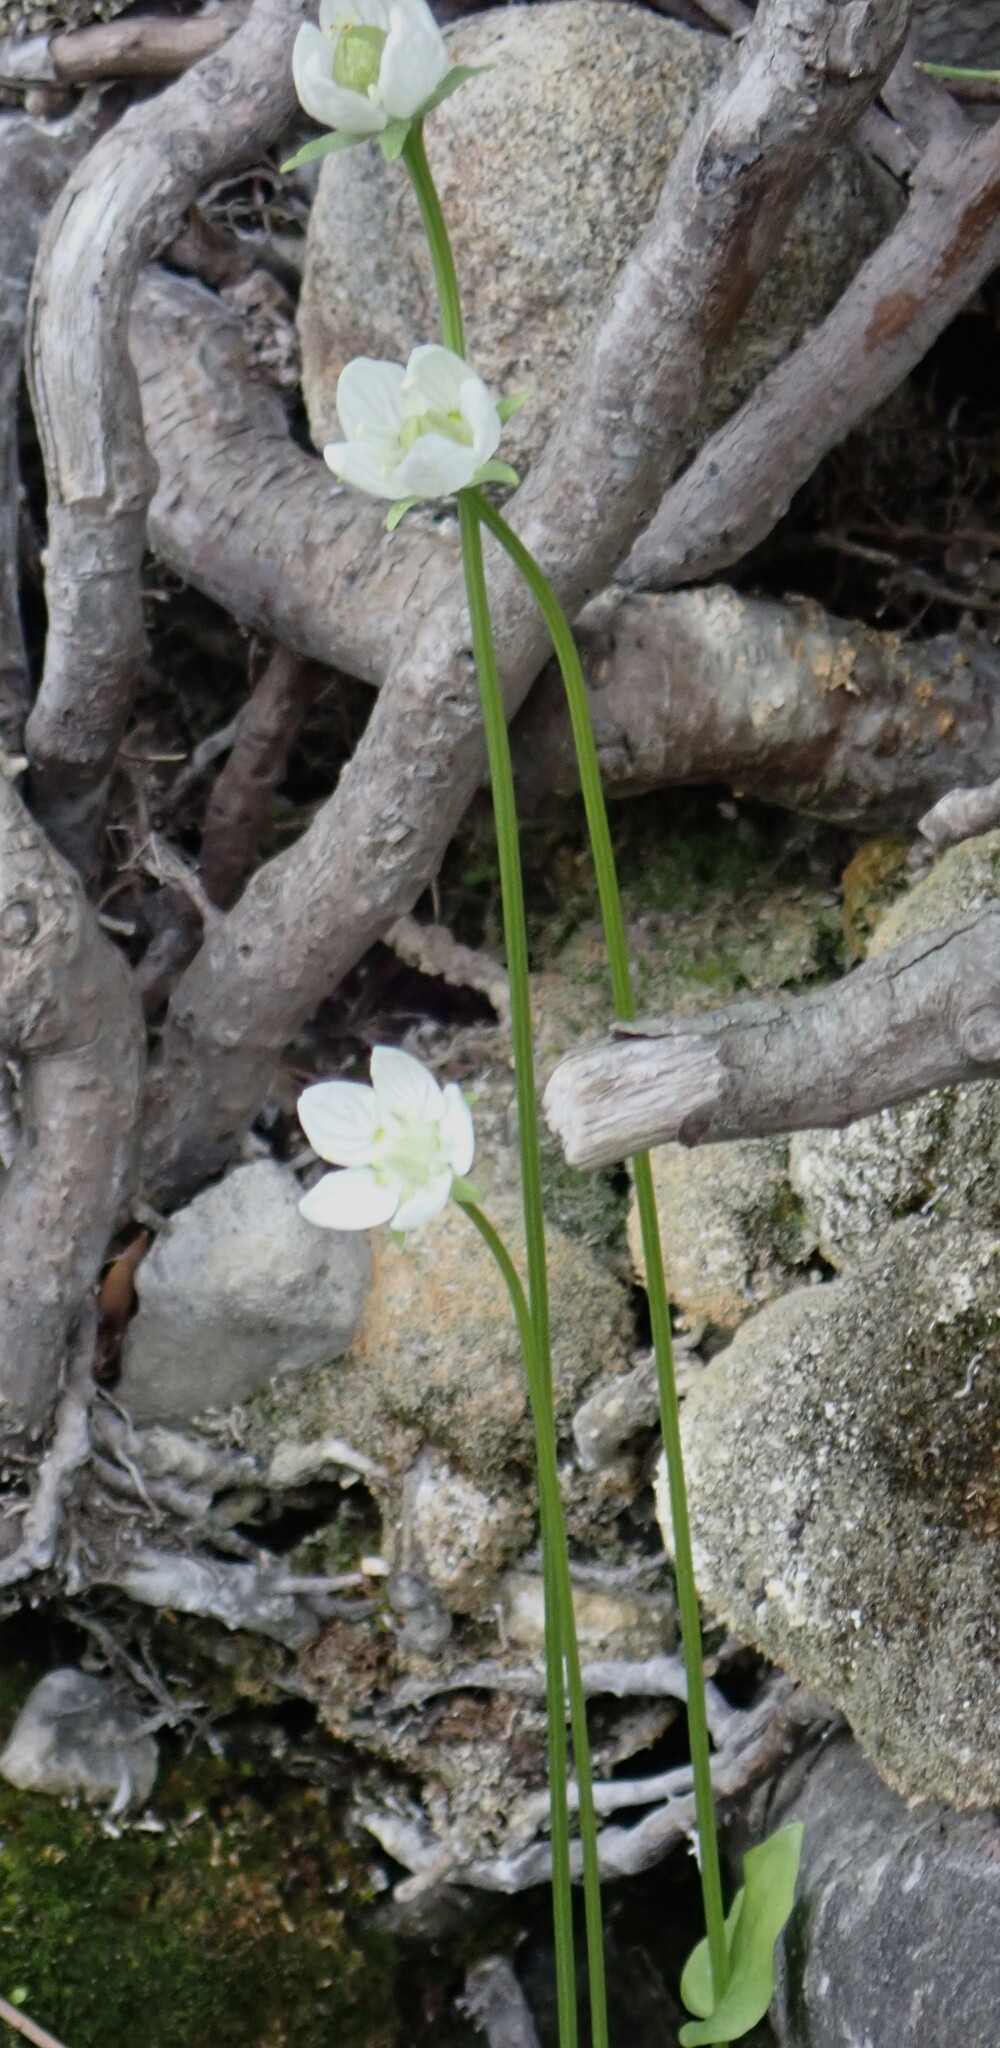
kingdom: Plantae
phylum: Tracheophyta
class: Magnoliopsida
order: Celastrales
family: Parnassiaceae
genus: Parnassia
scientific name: Parnassia palustris
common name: Grass-of-parnassus
